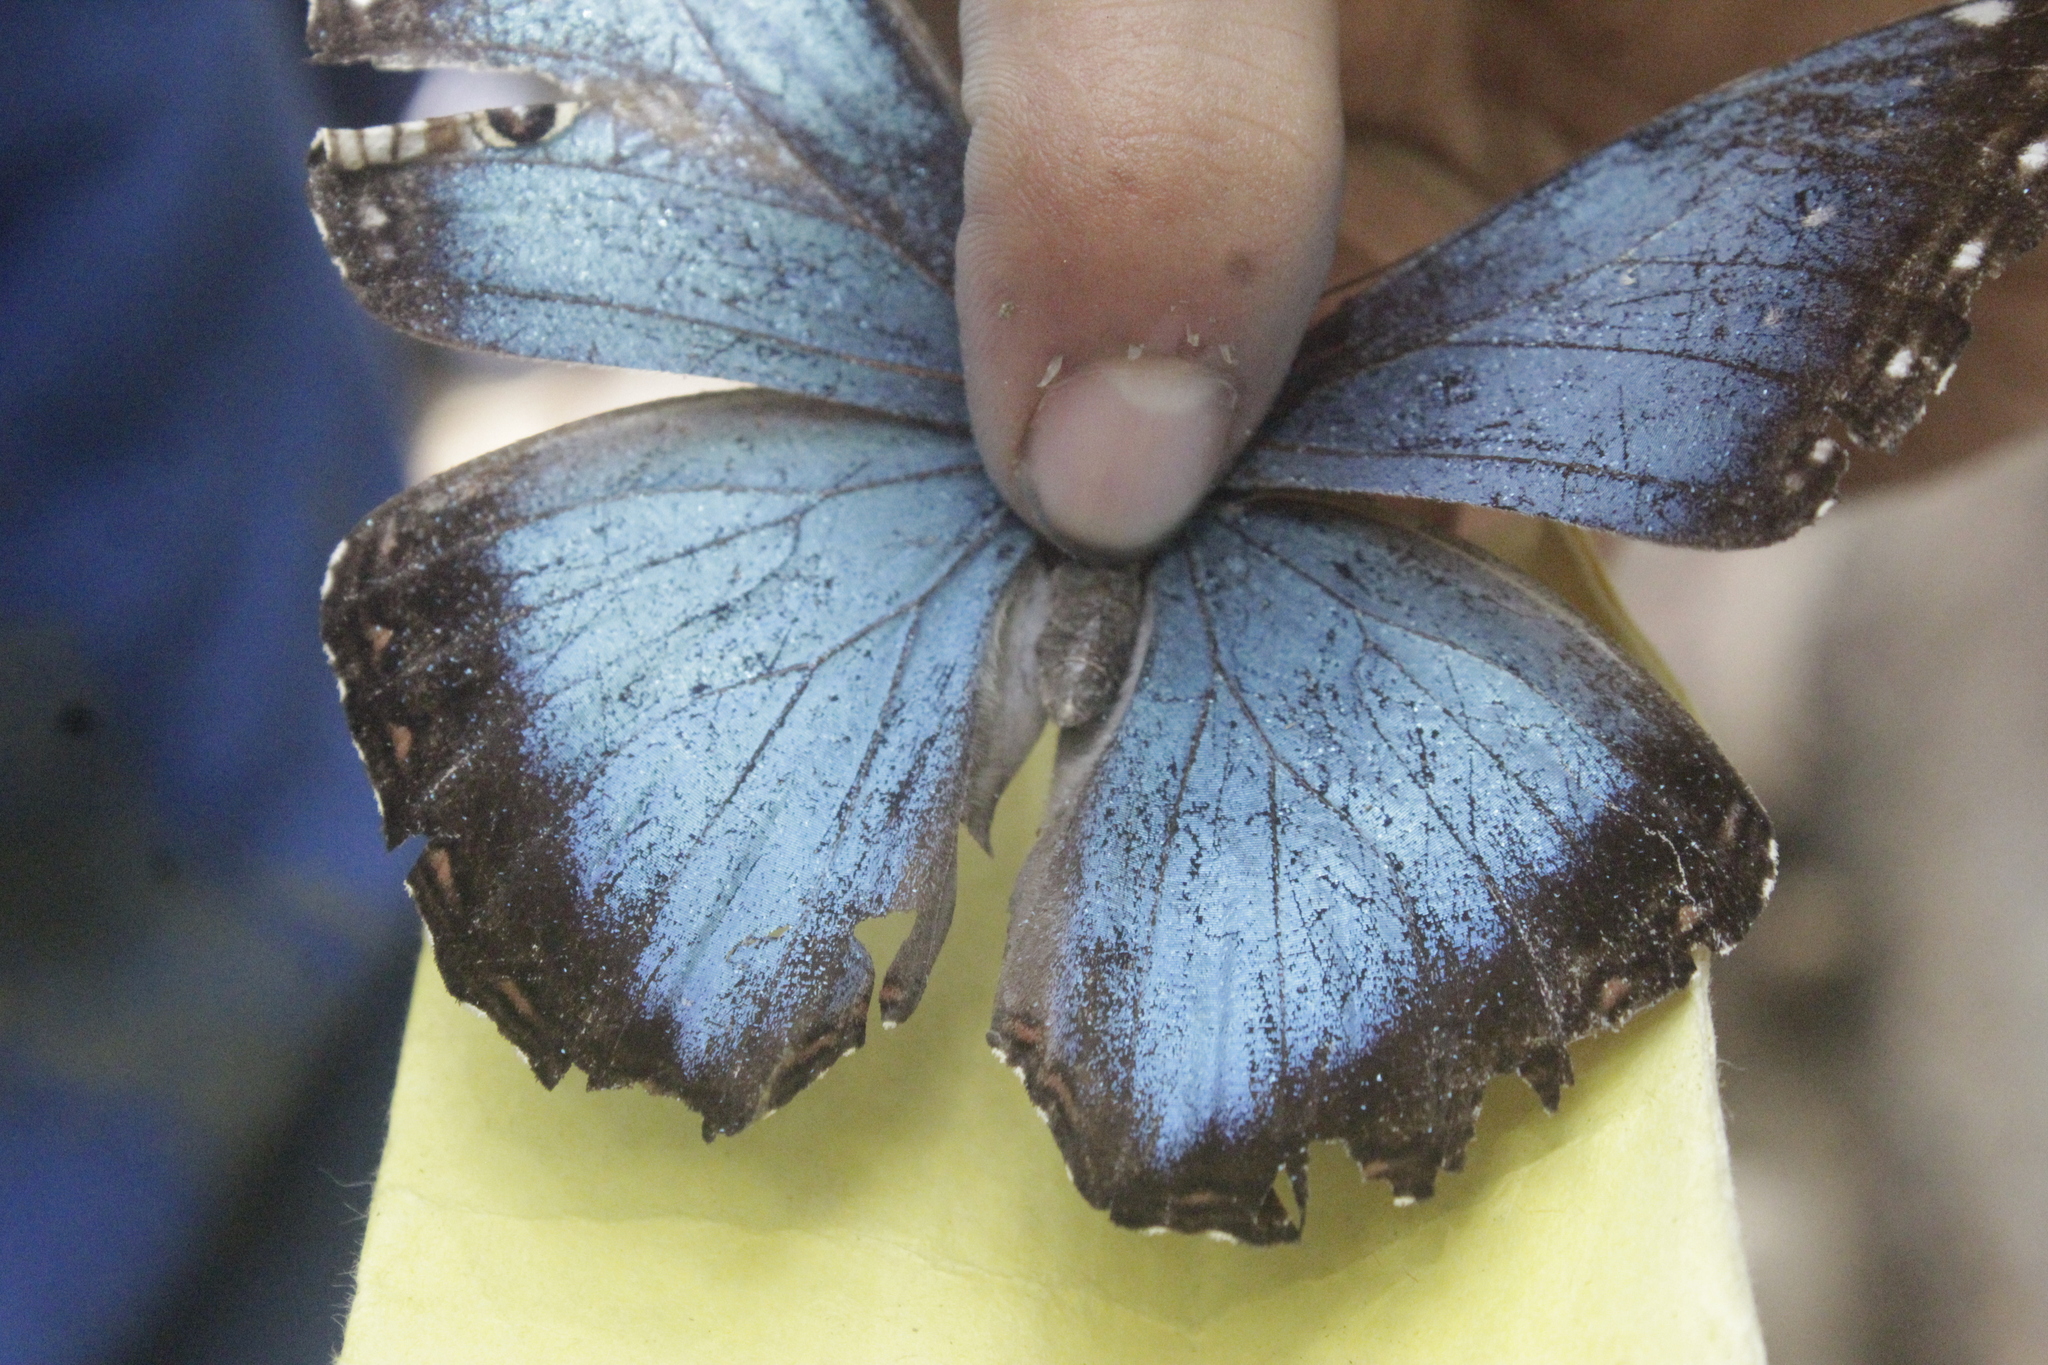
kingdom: Animalia
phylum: Arthropoda
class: Insecta
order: Lepidoptera
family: Nymphalidae
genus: Morpho
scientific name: Morpho helenor
